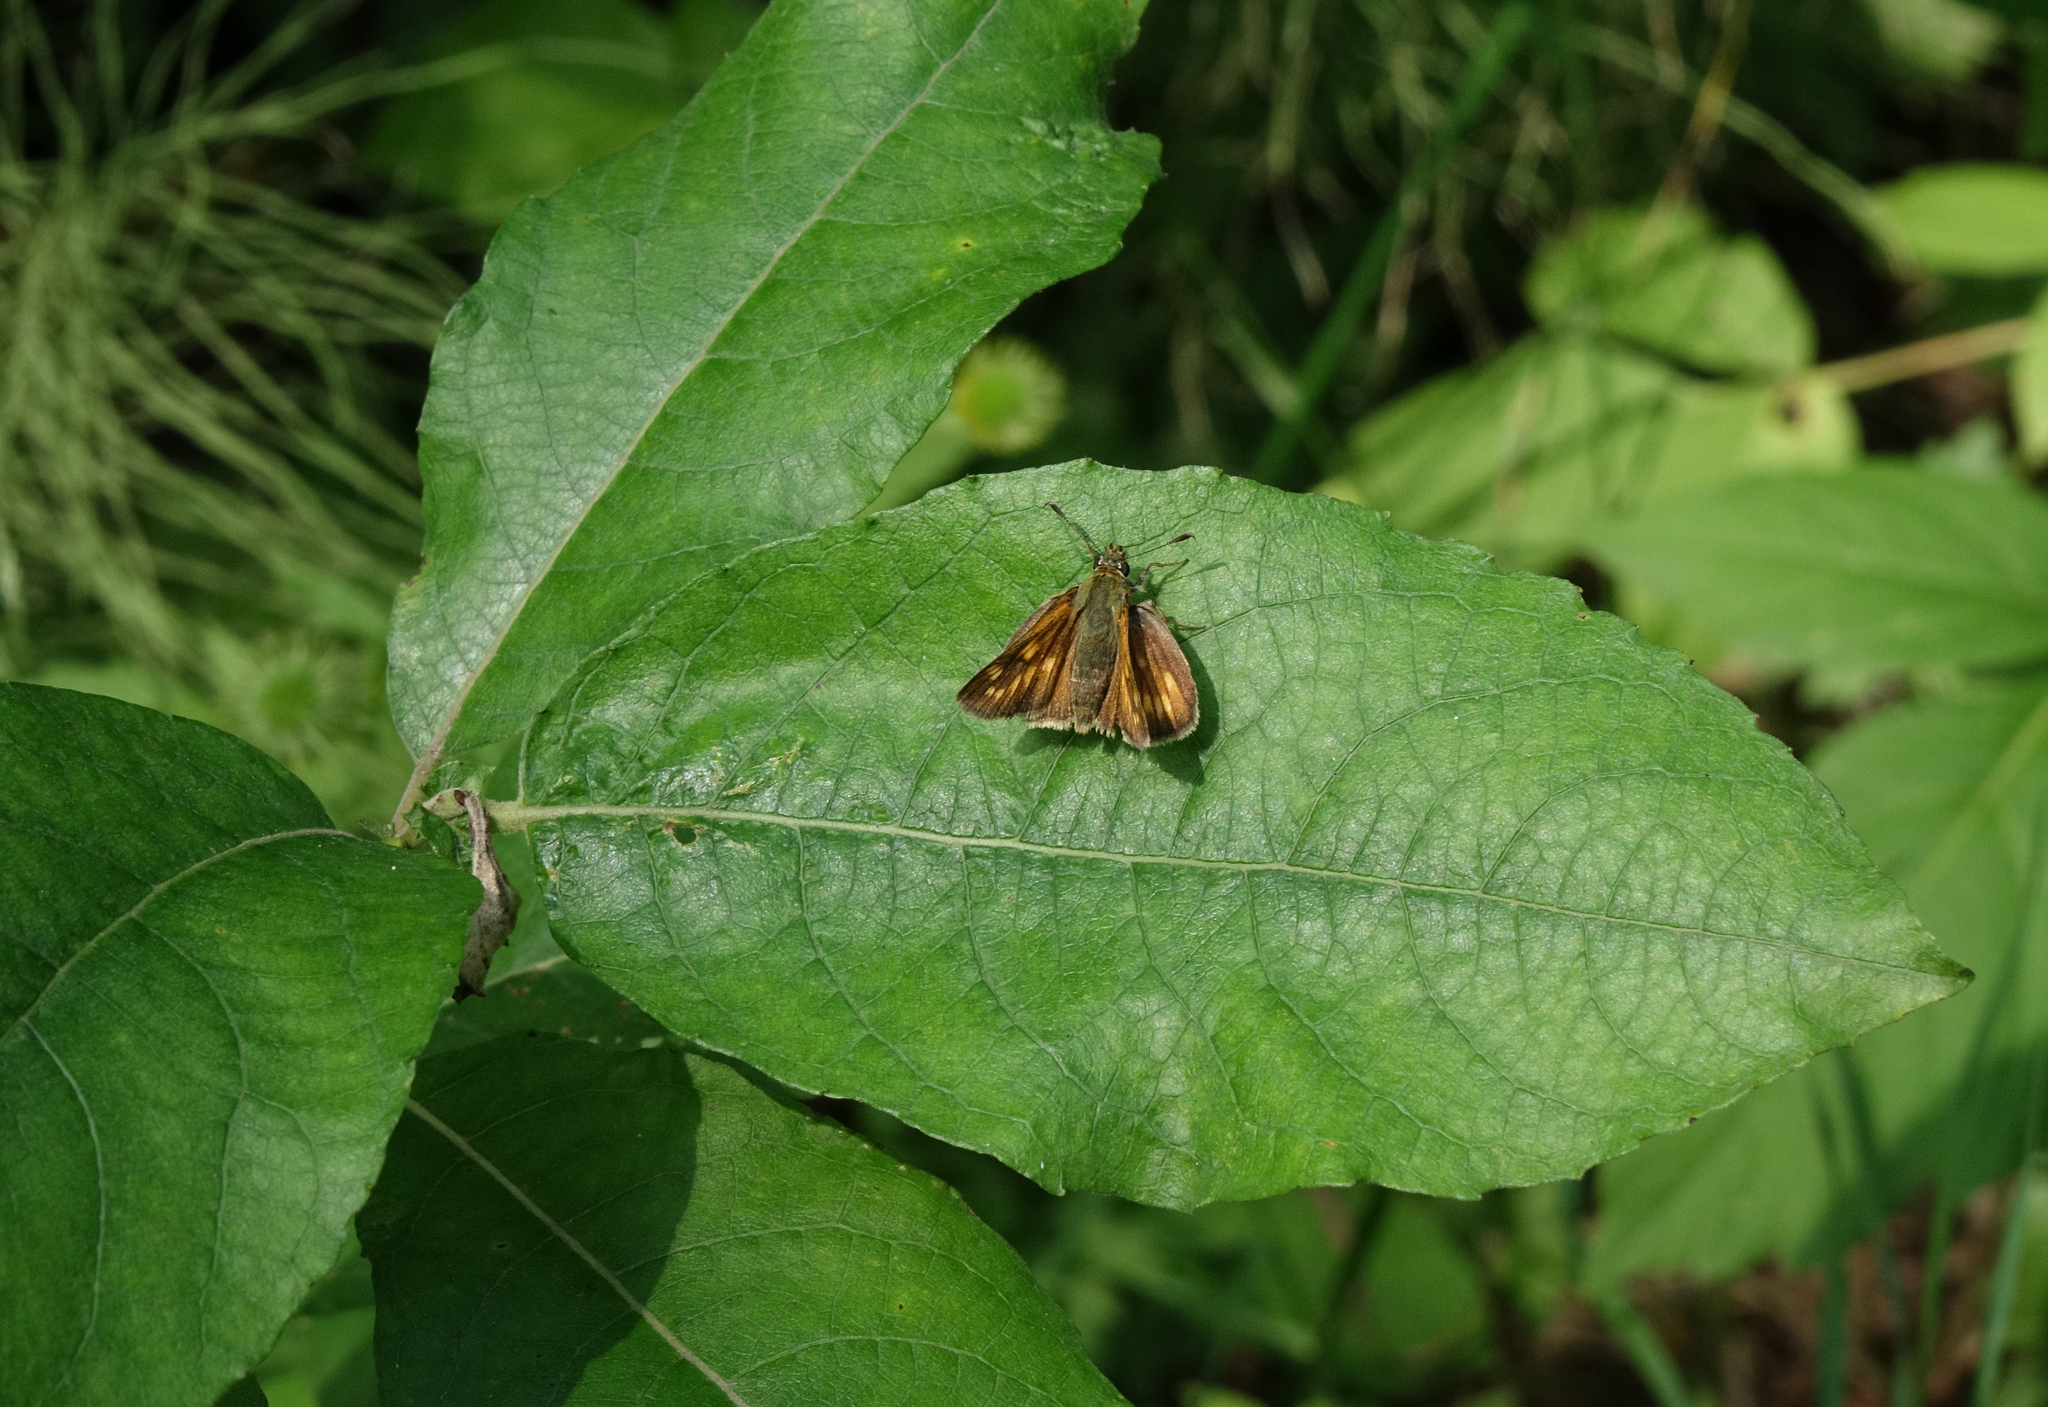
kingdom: Plantae
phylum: Tracheophyta
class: Magnoliopsida
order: Malpighiales
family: Salicaceae
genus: Salix
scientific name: Salix caprea
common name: Goat willow
